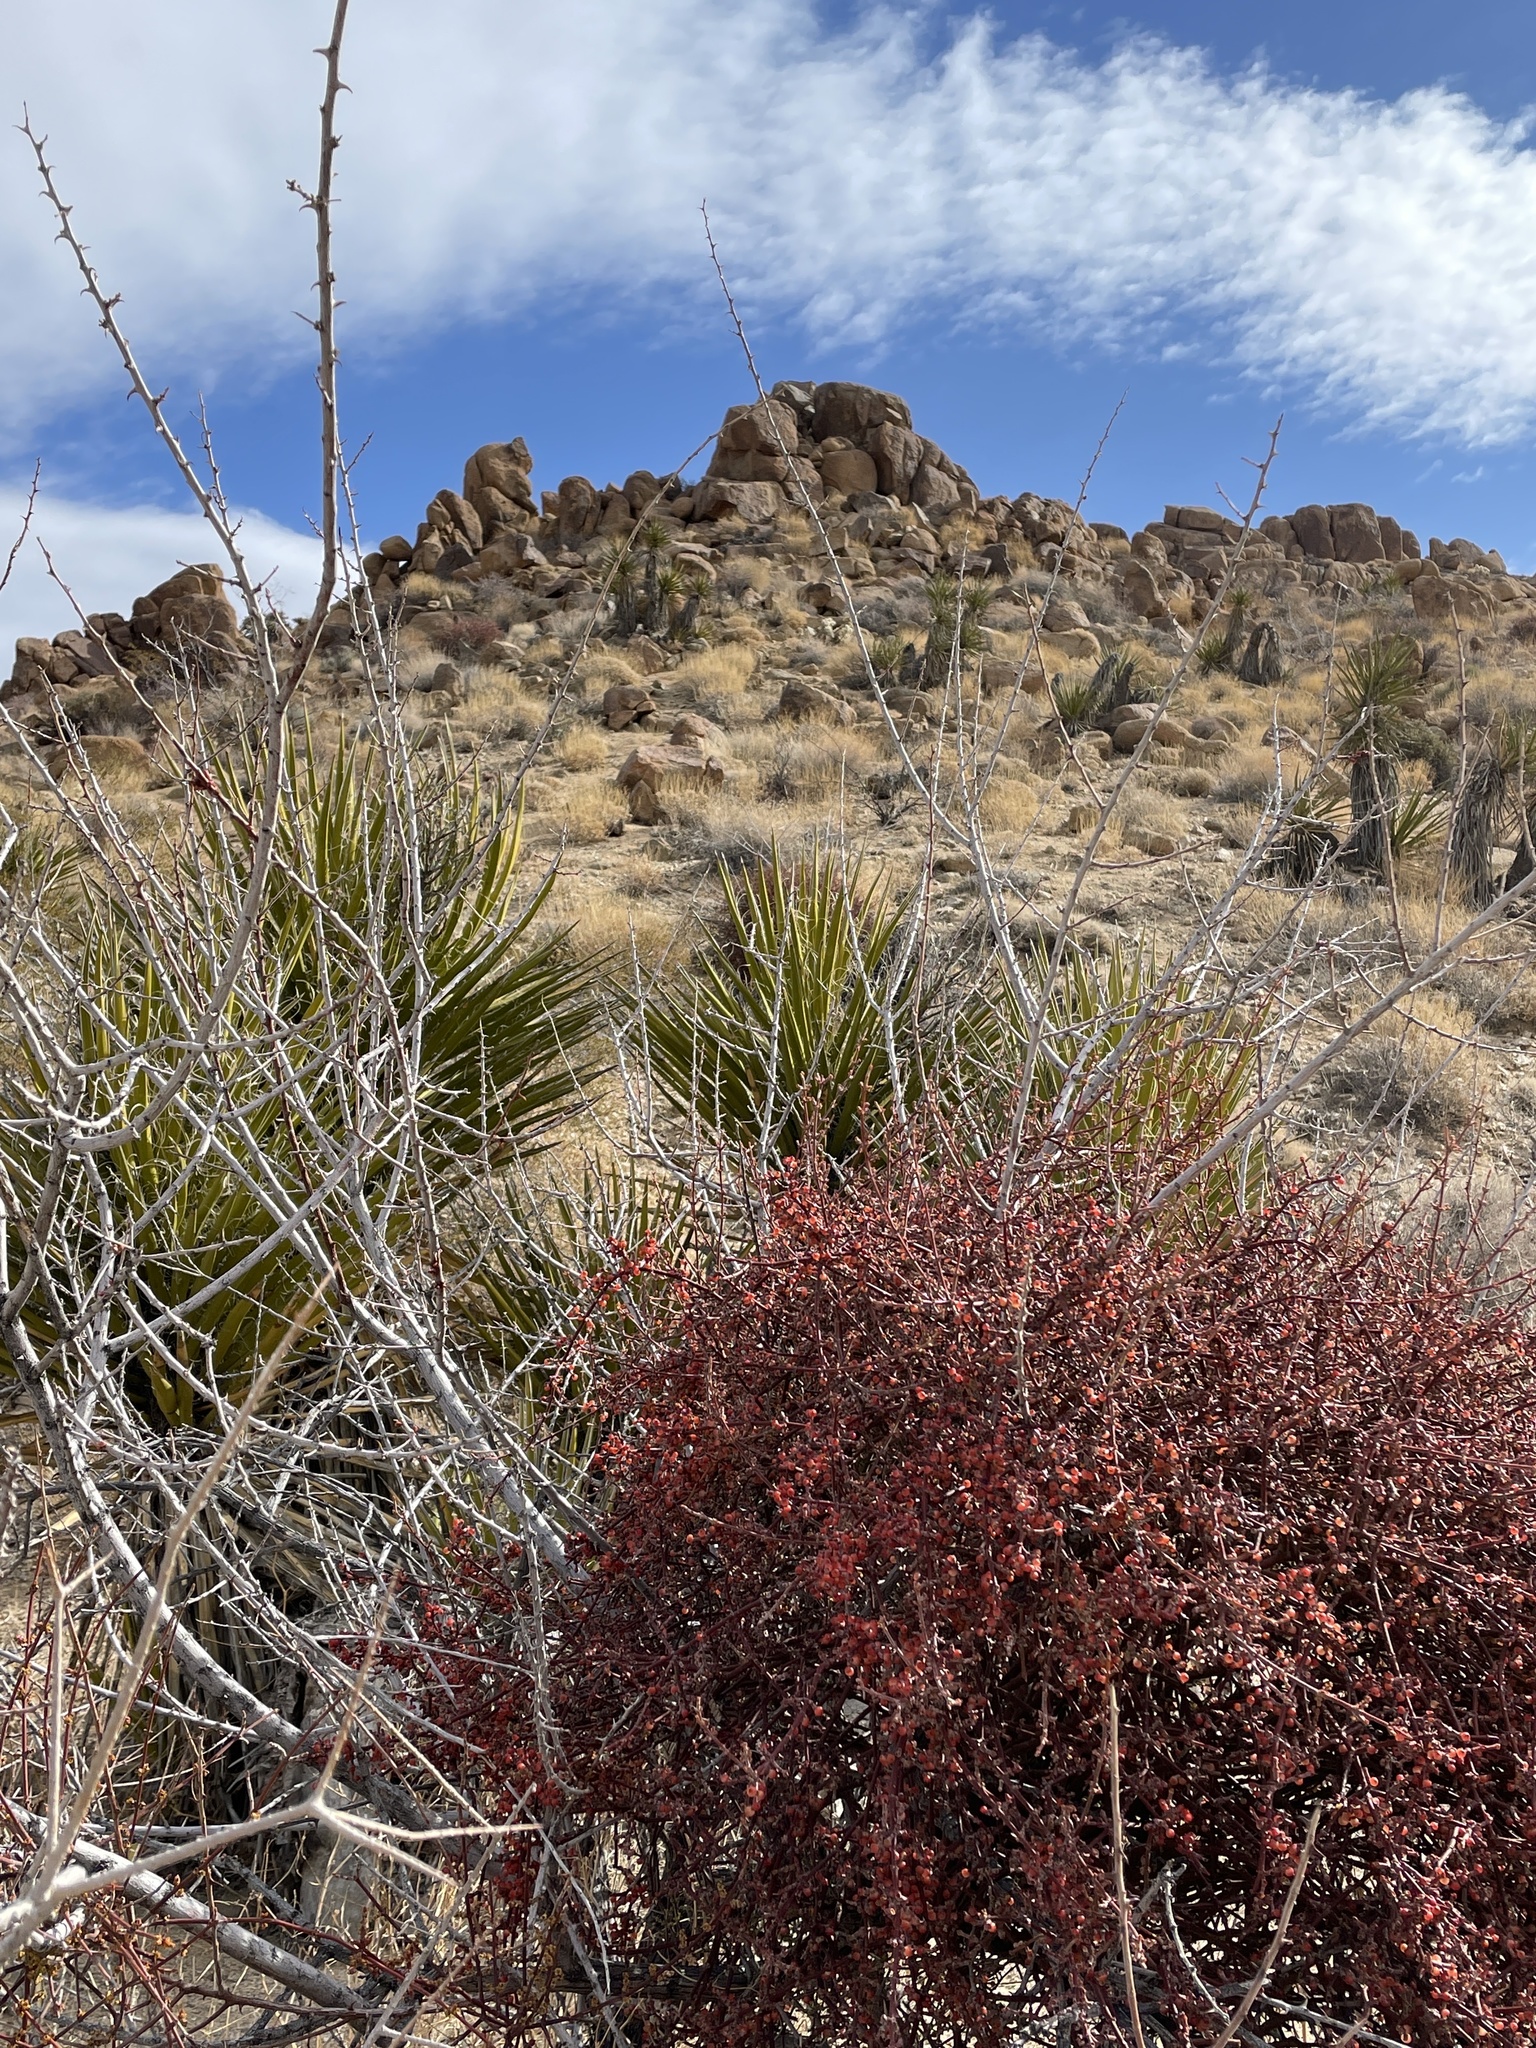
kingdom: Plantae
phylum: Tracheophyta
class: Magnoliopsida
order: Fabales
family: Fabaceae
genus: Senegalia
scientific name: Senegalia greggii
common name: Texas-mimosa
